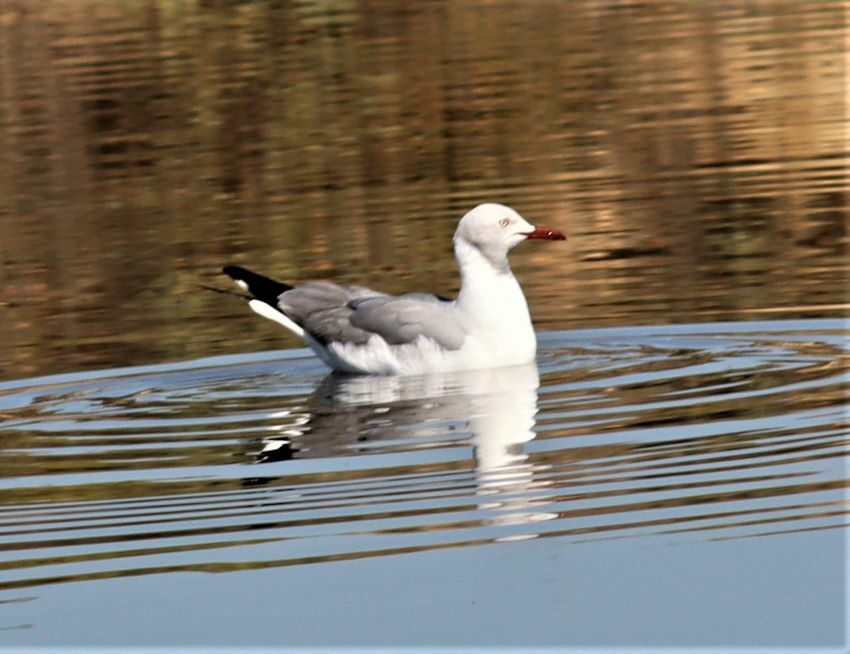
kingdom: Animalia
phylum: Chordata
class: Aves
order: Charadriiformes
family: Laridae
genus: Chroicocephalus
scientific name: Chroicocephalus cirrocephalus
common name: Grey-headed gull
